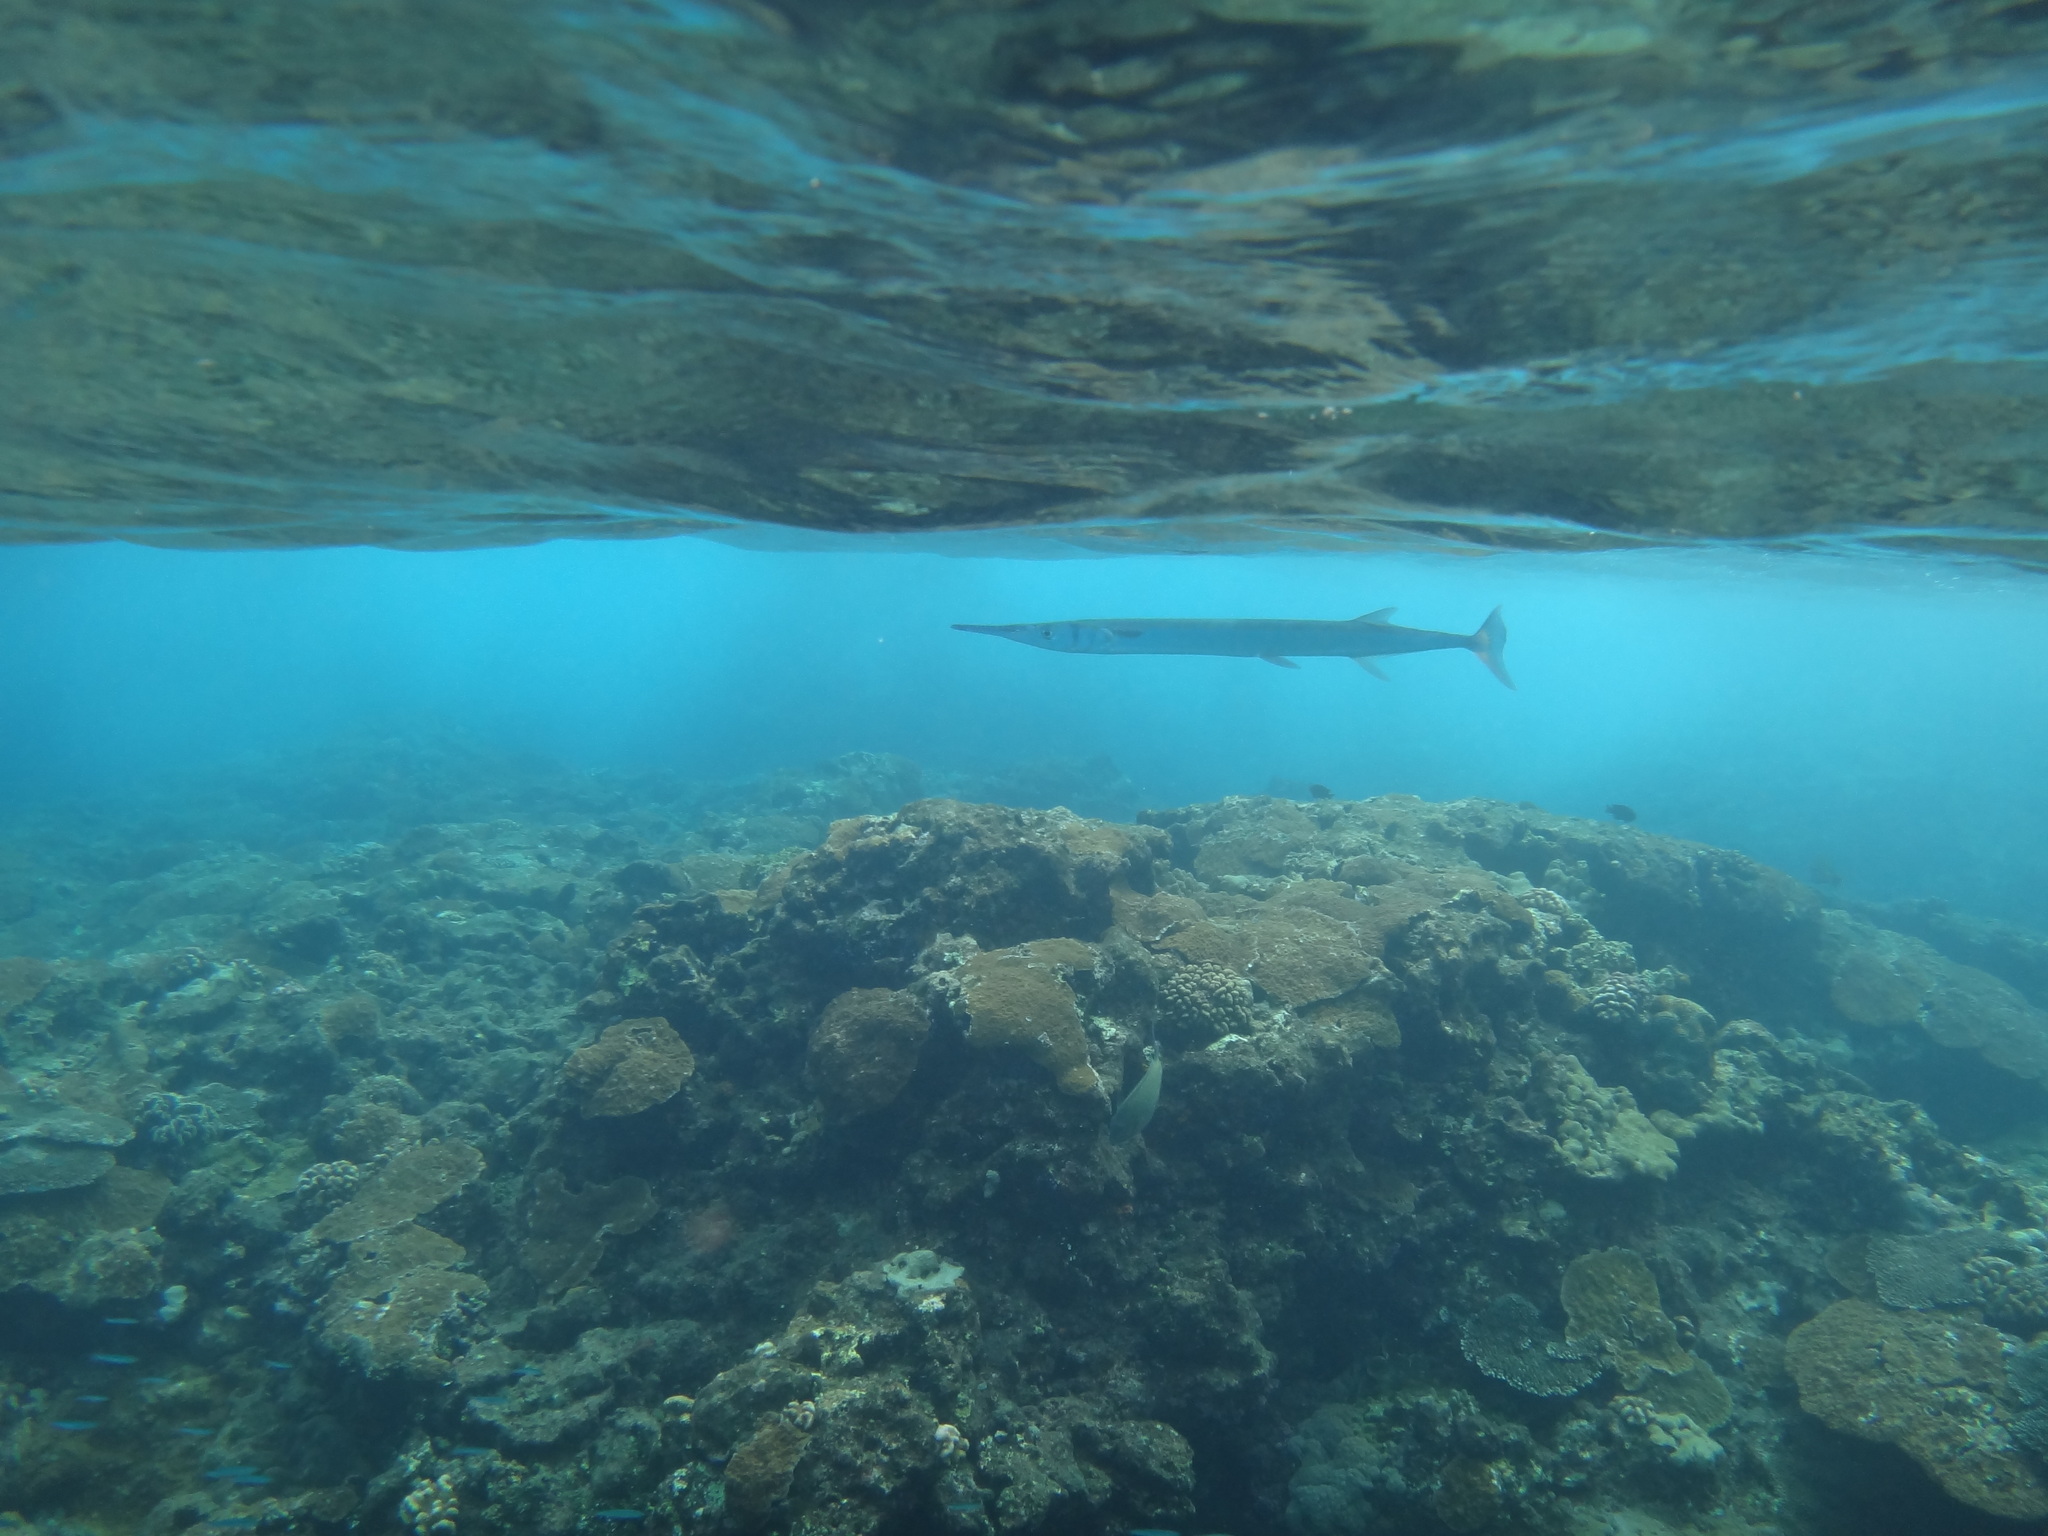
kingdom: Animalia
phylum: Chordata
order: Beloniformes
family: Belonidae
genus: Tylosurus
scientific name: Tylosurus crocodilus
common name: Houndfish
